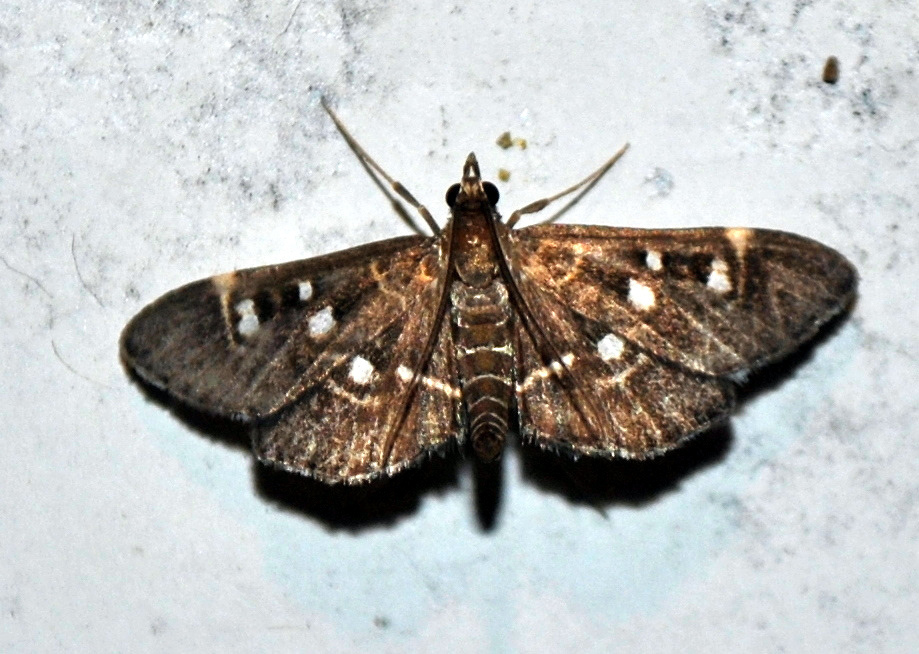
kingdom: Animalia
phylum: Arthropoda
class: Insecta
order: Lepidoptera
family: Crambidae
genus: Diathrausta
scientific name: Diathrausta
